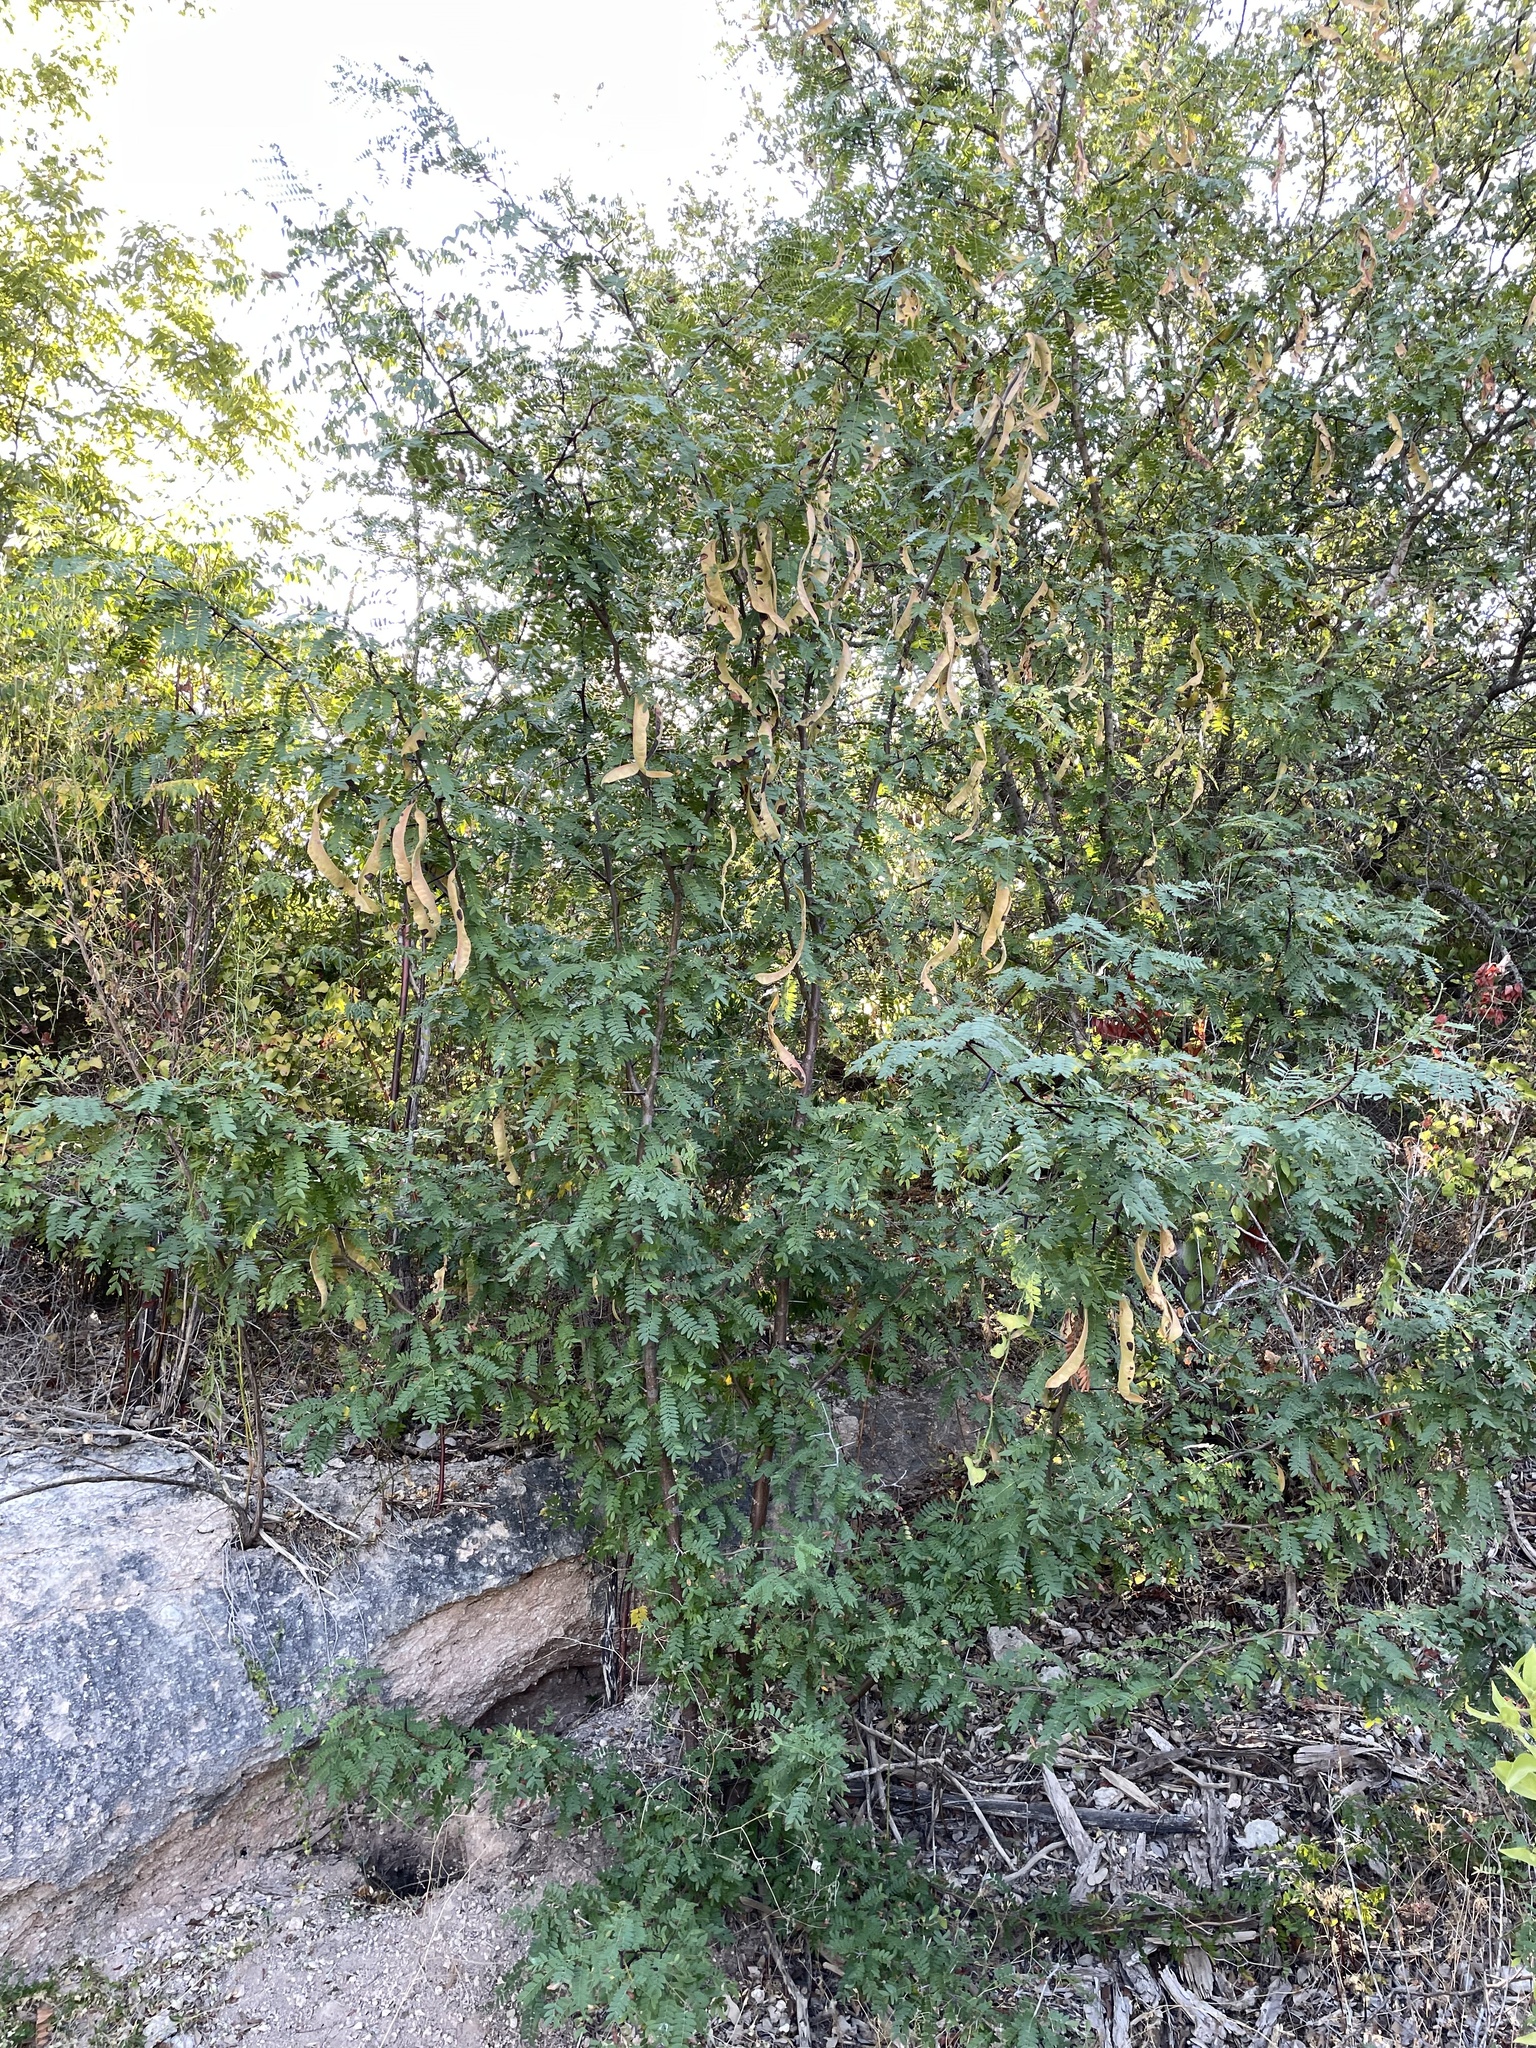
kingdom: Plantae
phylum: Tracheophyta
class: Magnoliopsida
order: Fabales
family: Fabaceae
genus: Gleditsia
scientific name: Gleditsia triacanthos
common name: Common honeylocust
